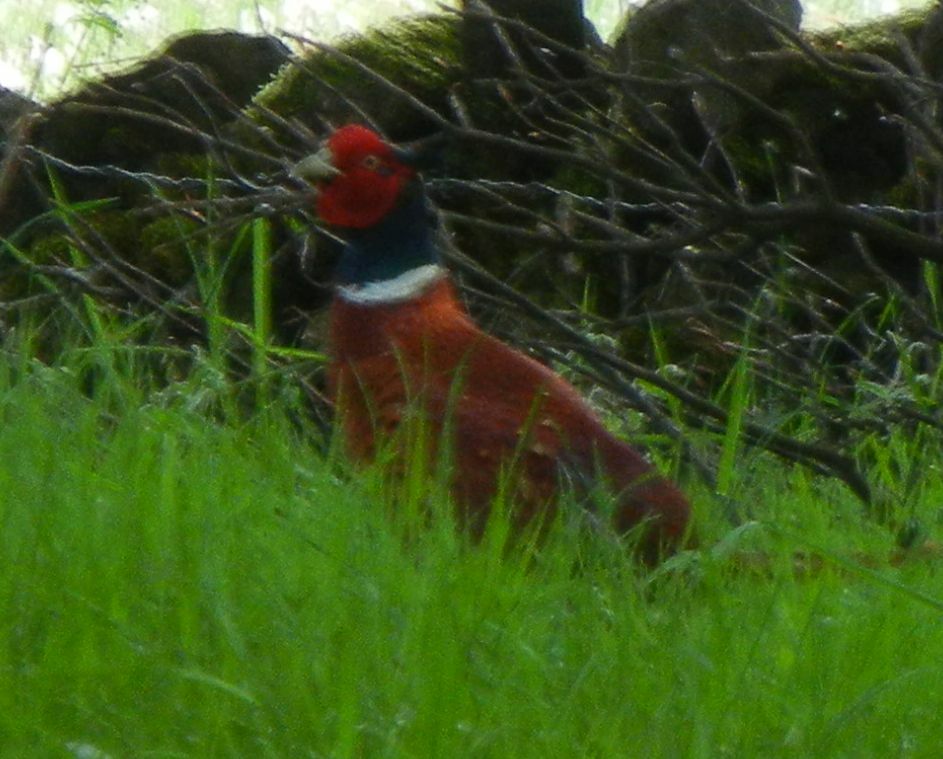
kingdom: Animalia
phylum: Chordata
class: Aves
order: Galliformes
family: Phasianidae
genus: Phasianus
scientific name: Phasianus colchicus
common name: Common pheasant
